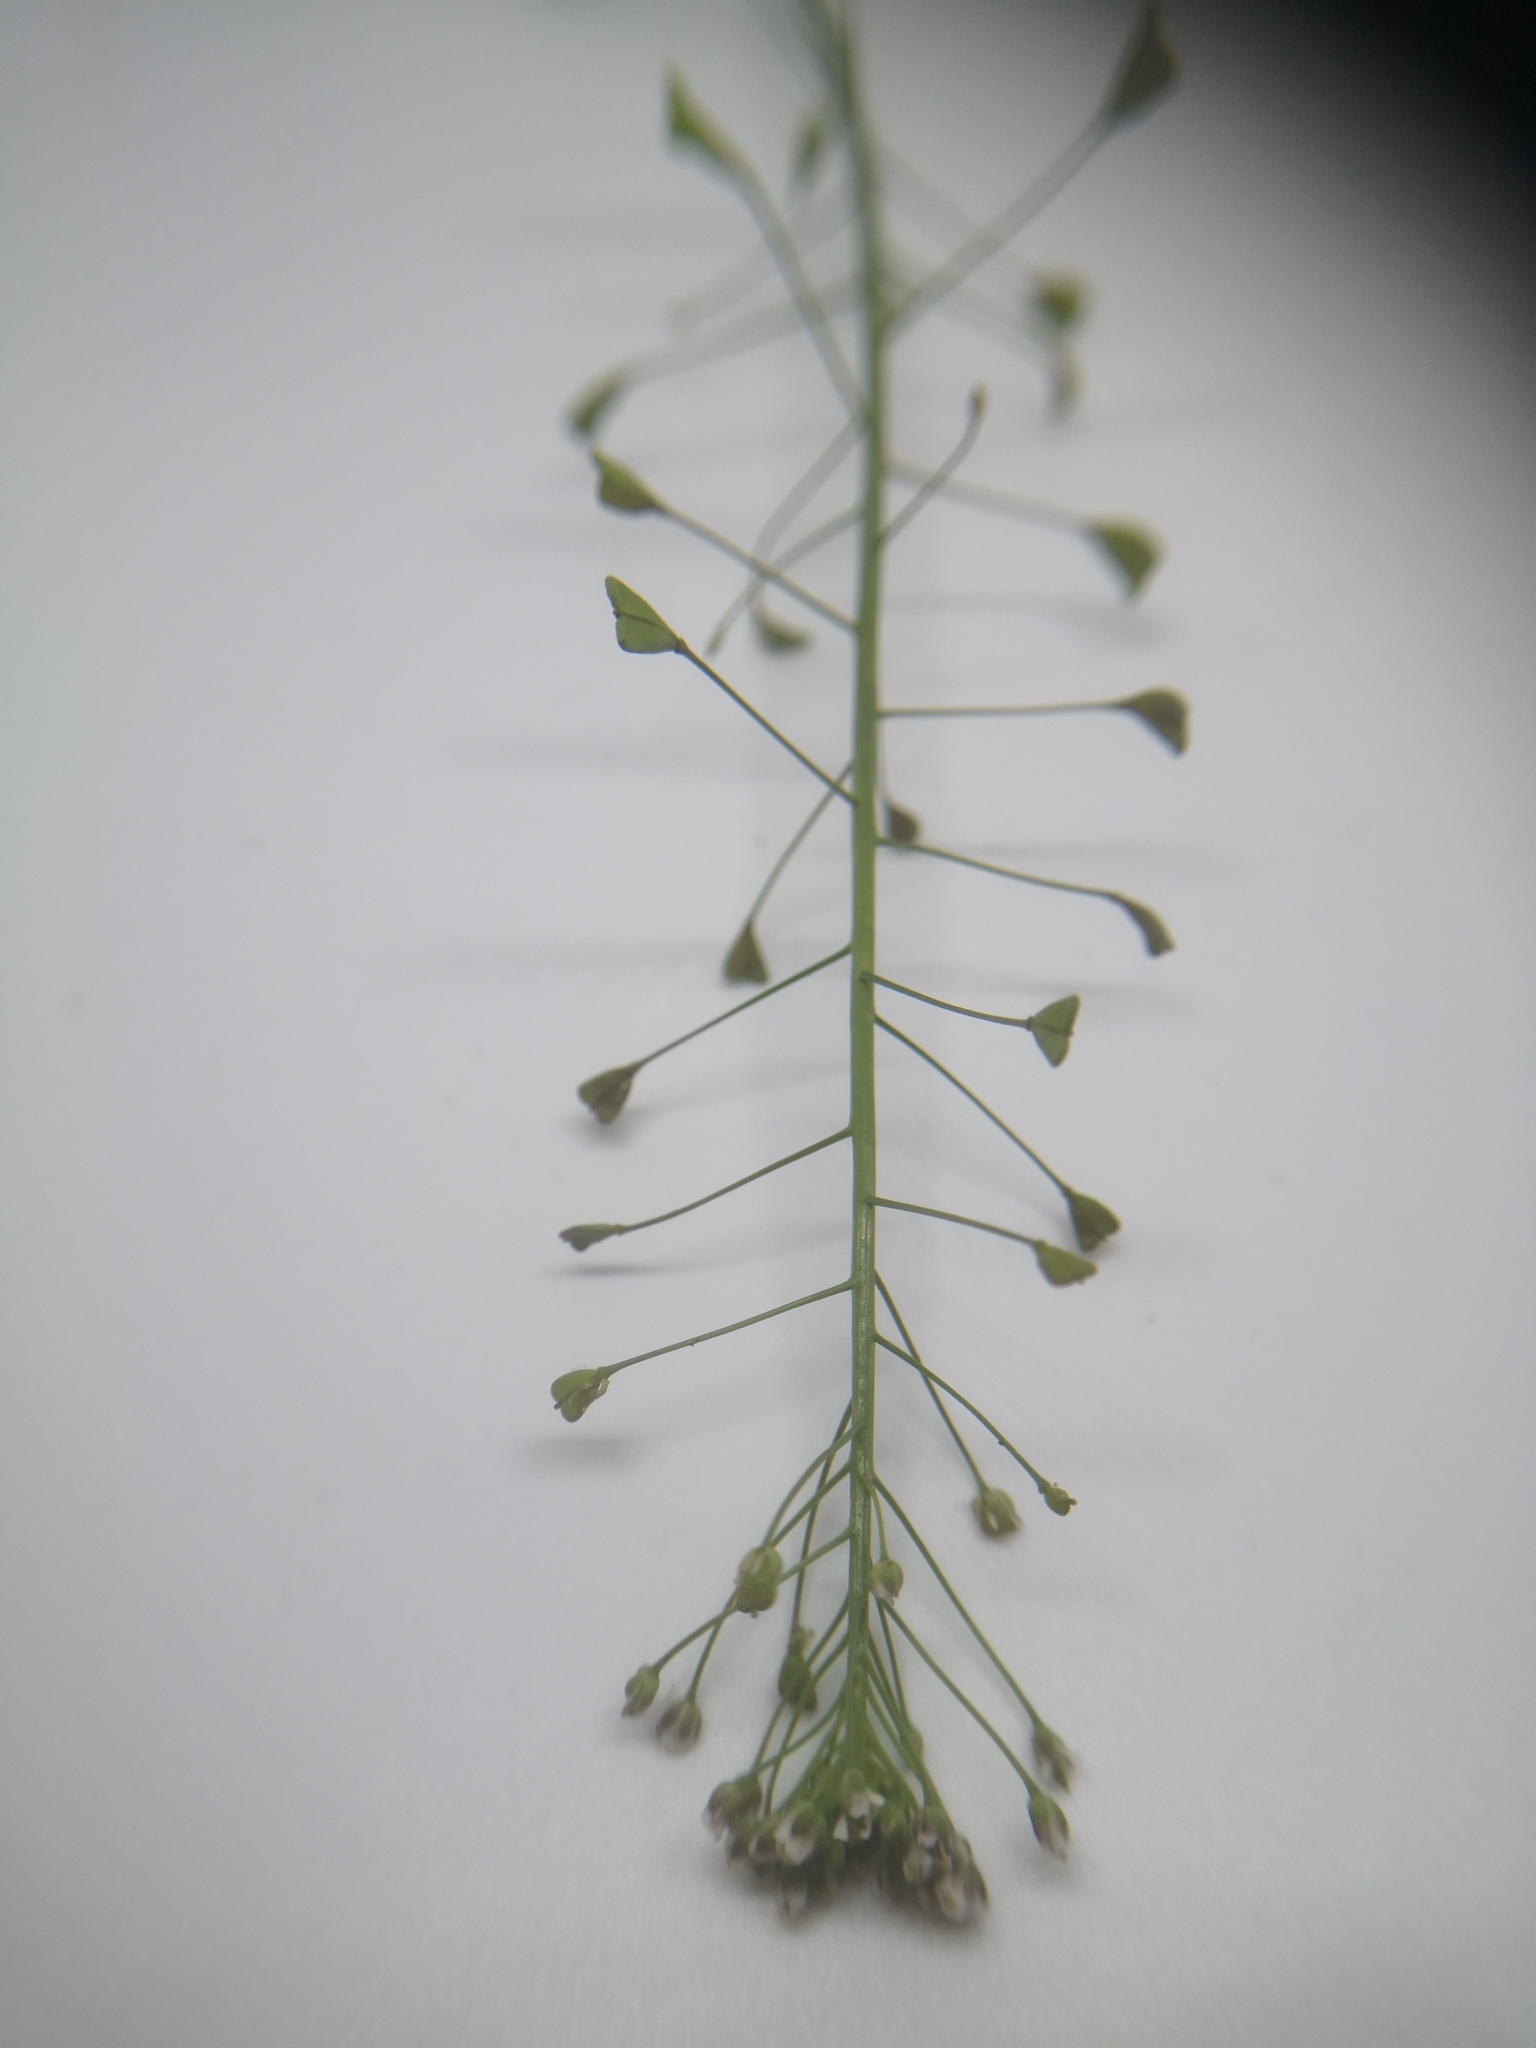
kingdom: Plantae
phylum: Tracheophyta
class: Magnoliopsida
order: Brassicales
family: Brassicaceae
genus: Capsella
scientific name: Capsella bursa-pastoris
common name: Shepherd's purse
